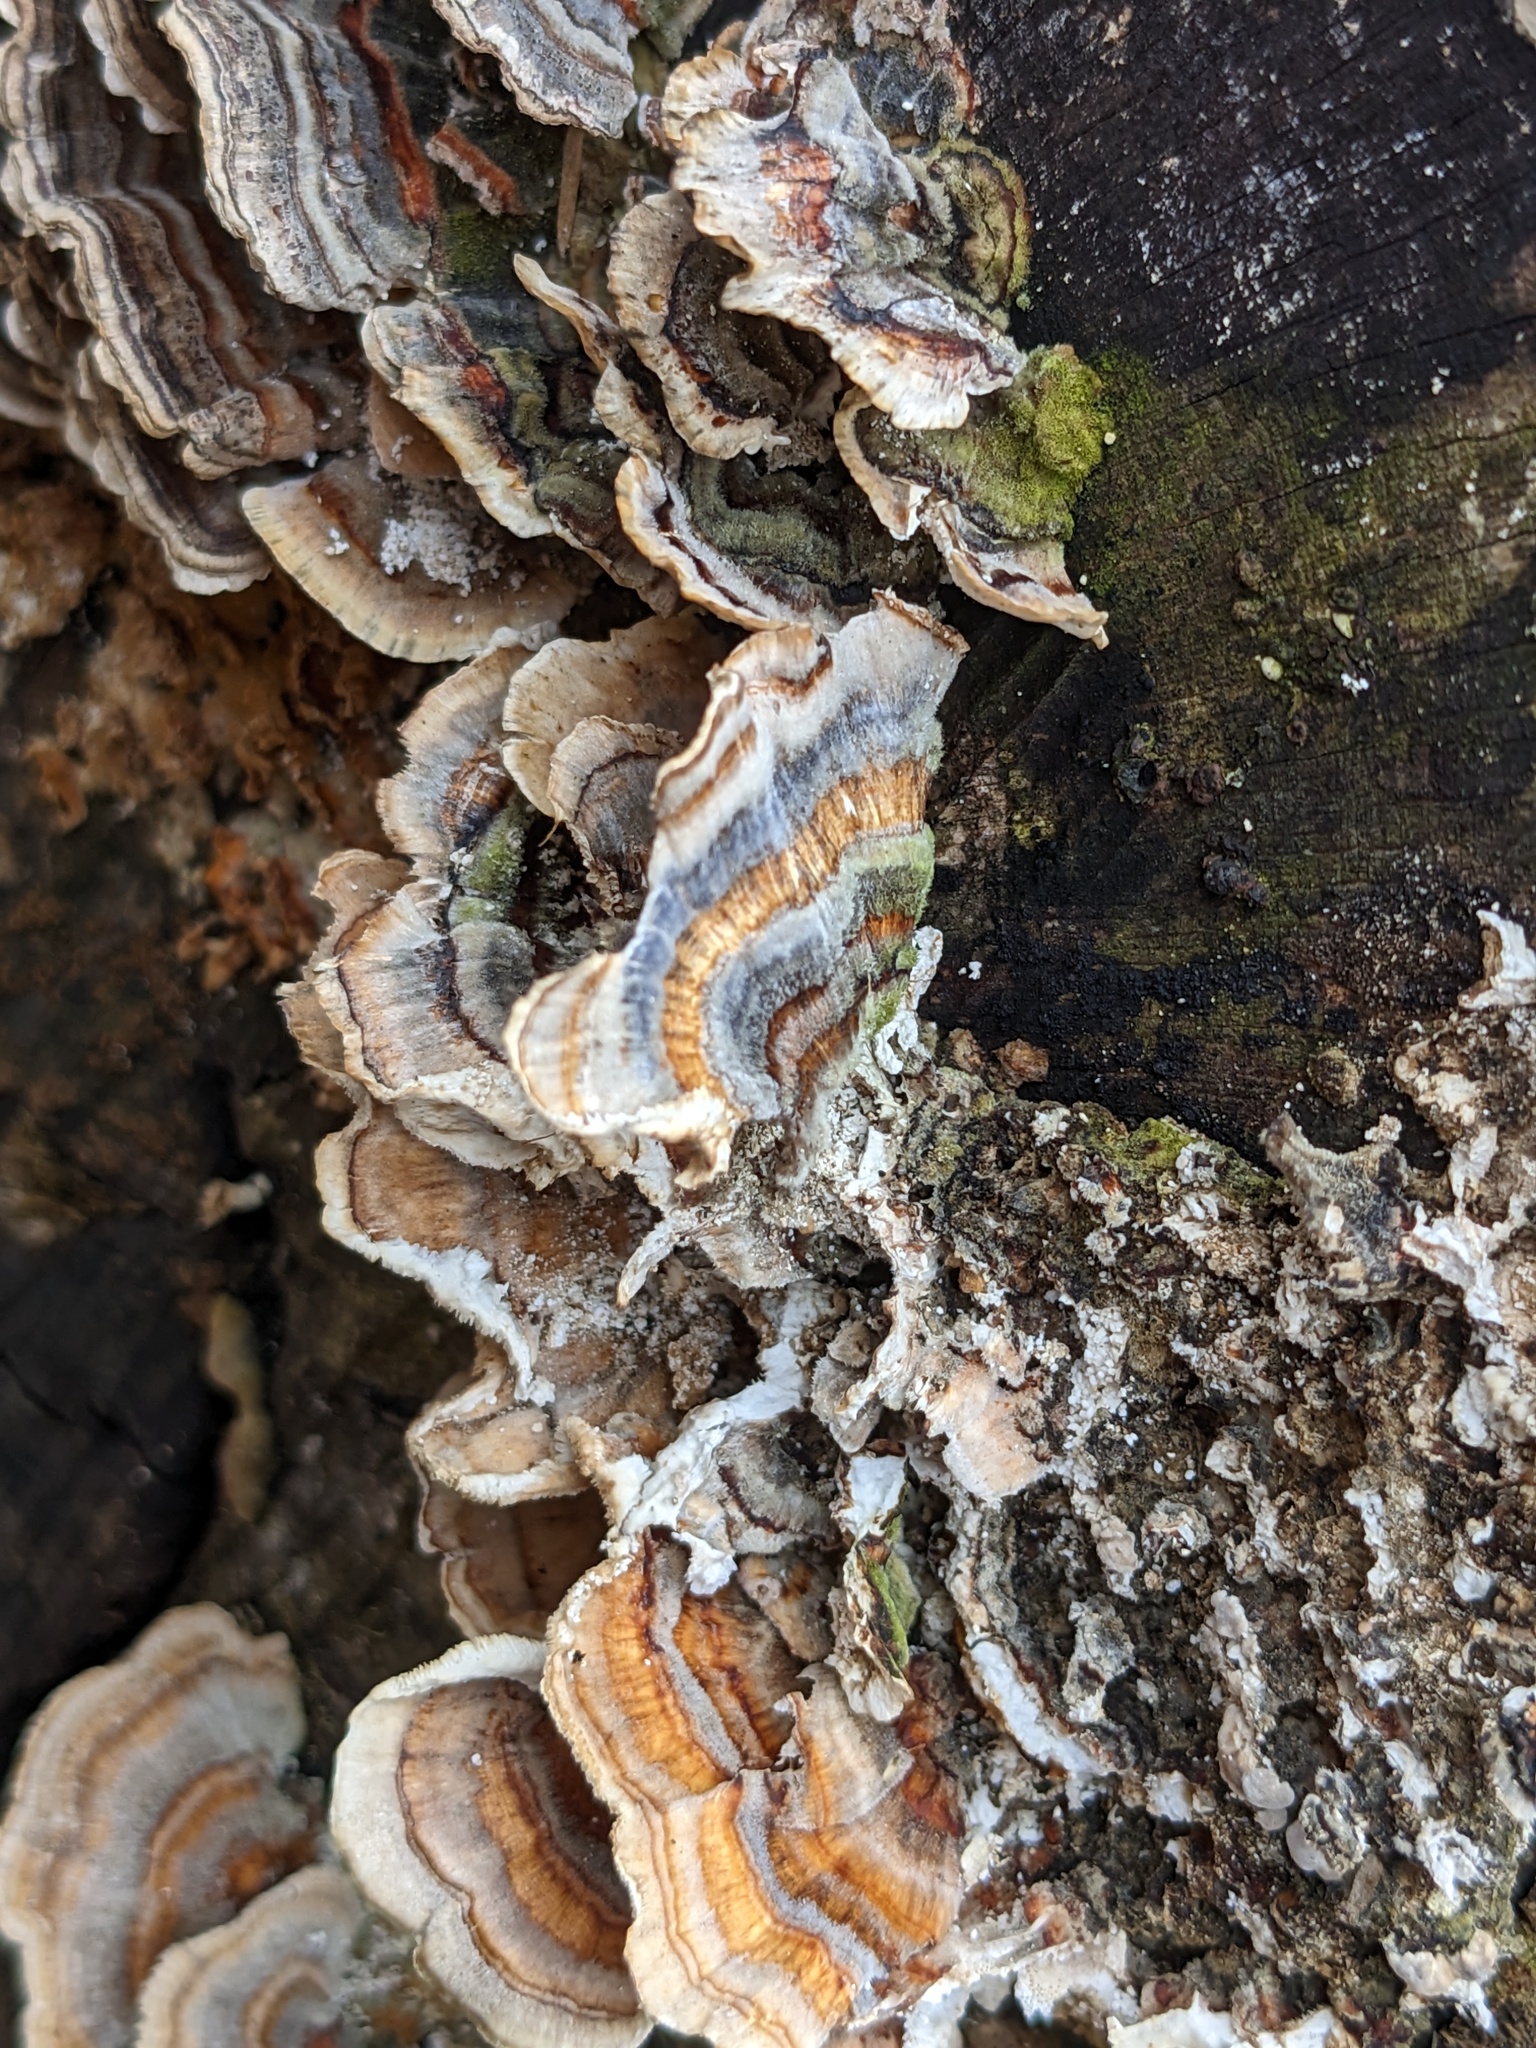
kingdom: Fungi
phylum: Basidiomycota
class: Agaricomycetes
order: Polyporales
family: Polyporaceae
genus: Trametes
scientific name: Trametes versicolor
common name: Turkeytail
